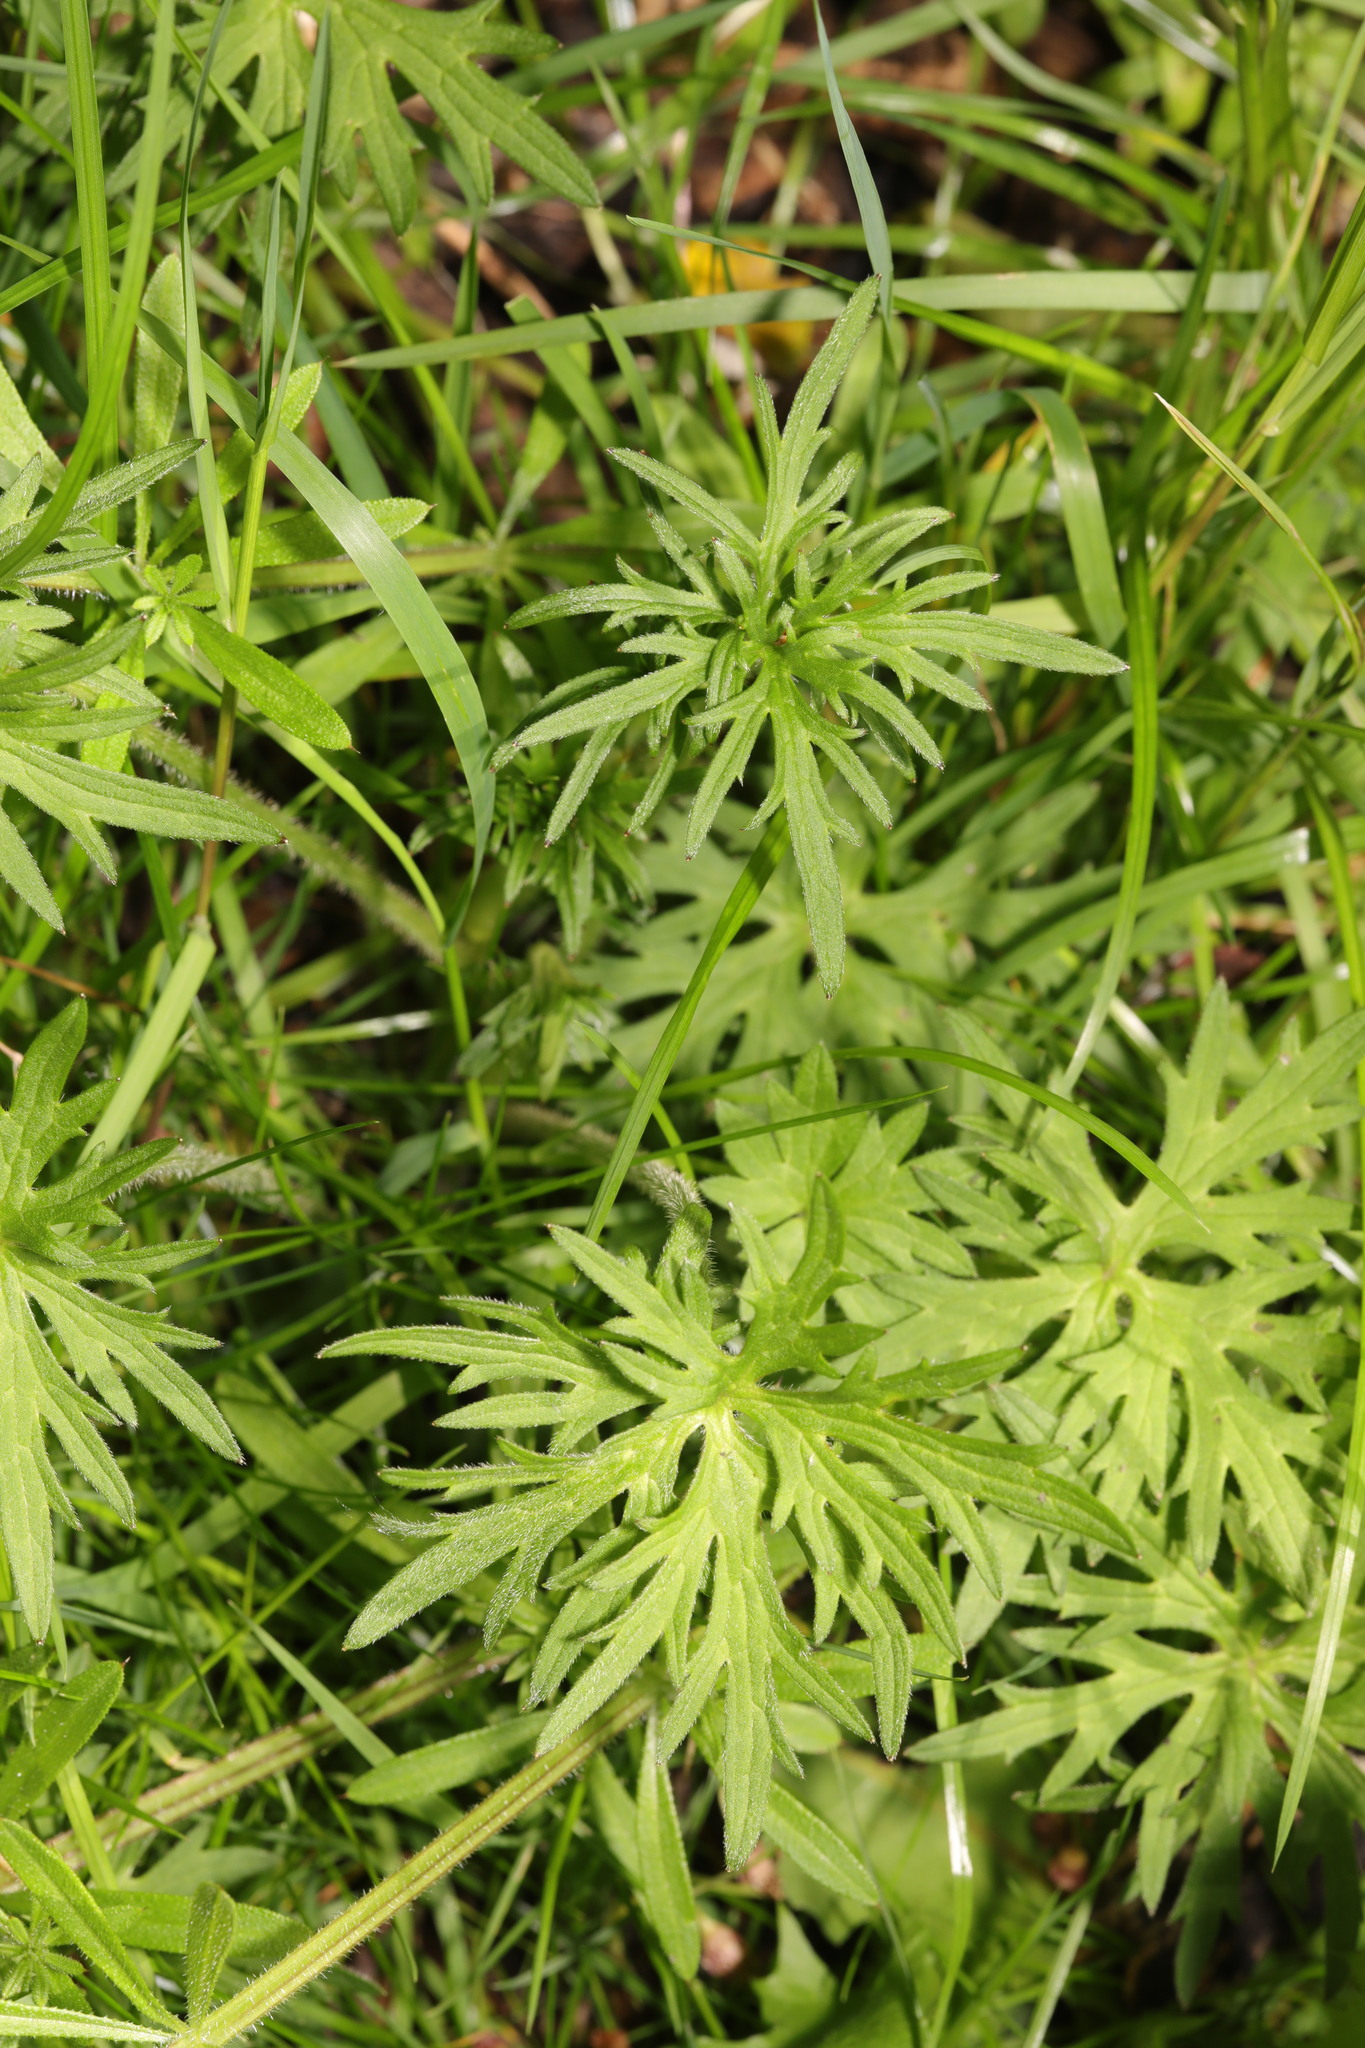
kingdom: Plantae
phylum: Tracheophyta
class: Magnoliopsida
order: Ranunculales
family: Ranunculaceae
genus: Ranunculus
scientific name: Ranunculus acris
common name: Meadow buttercup
